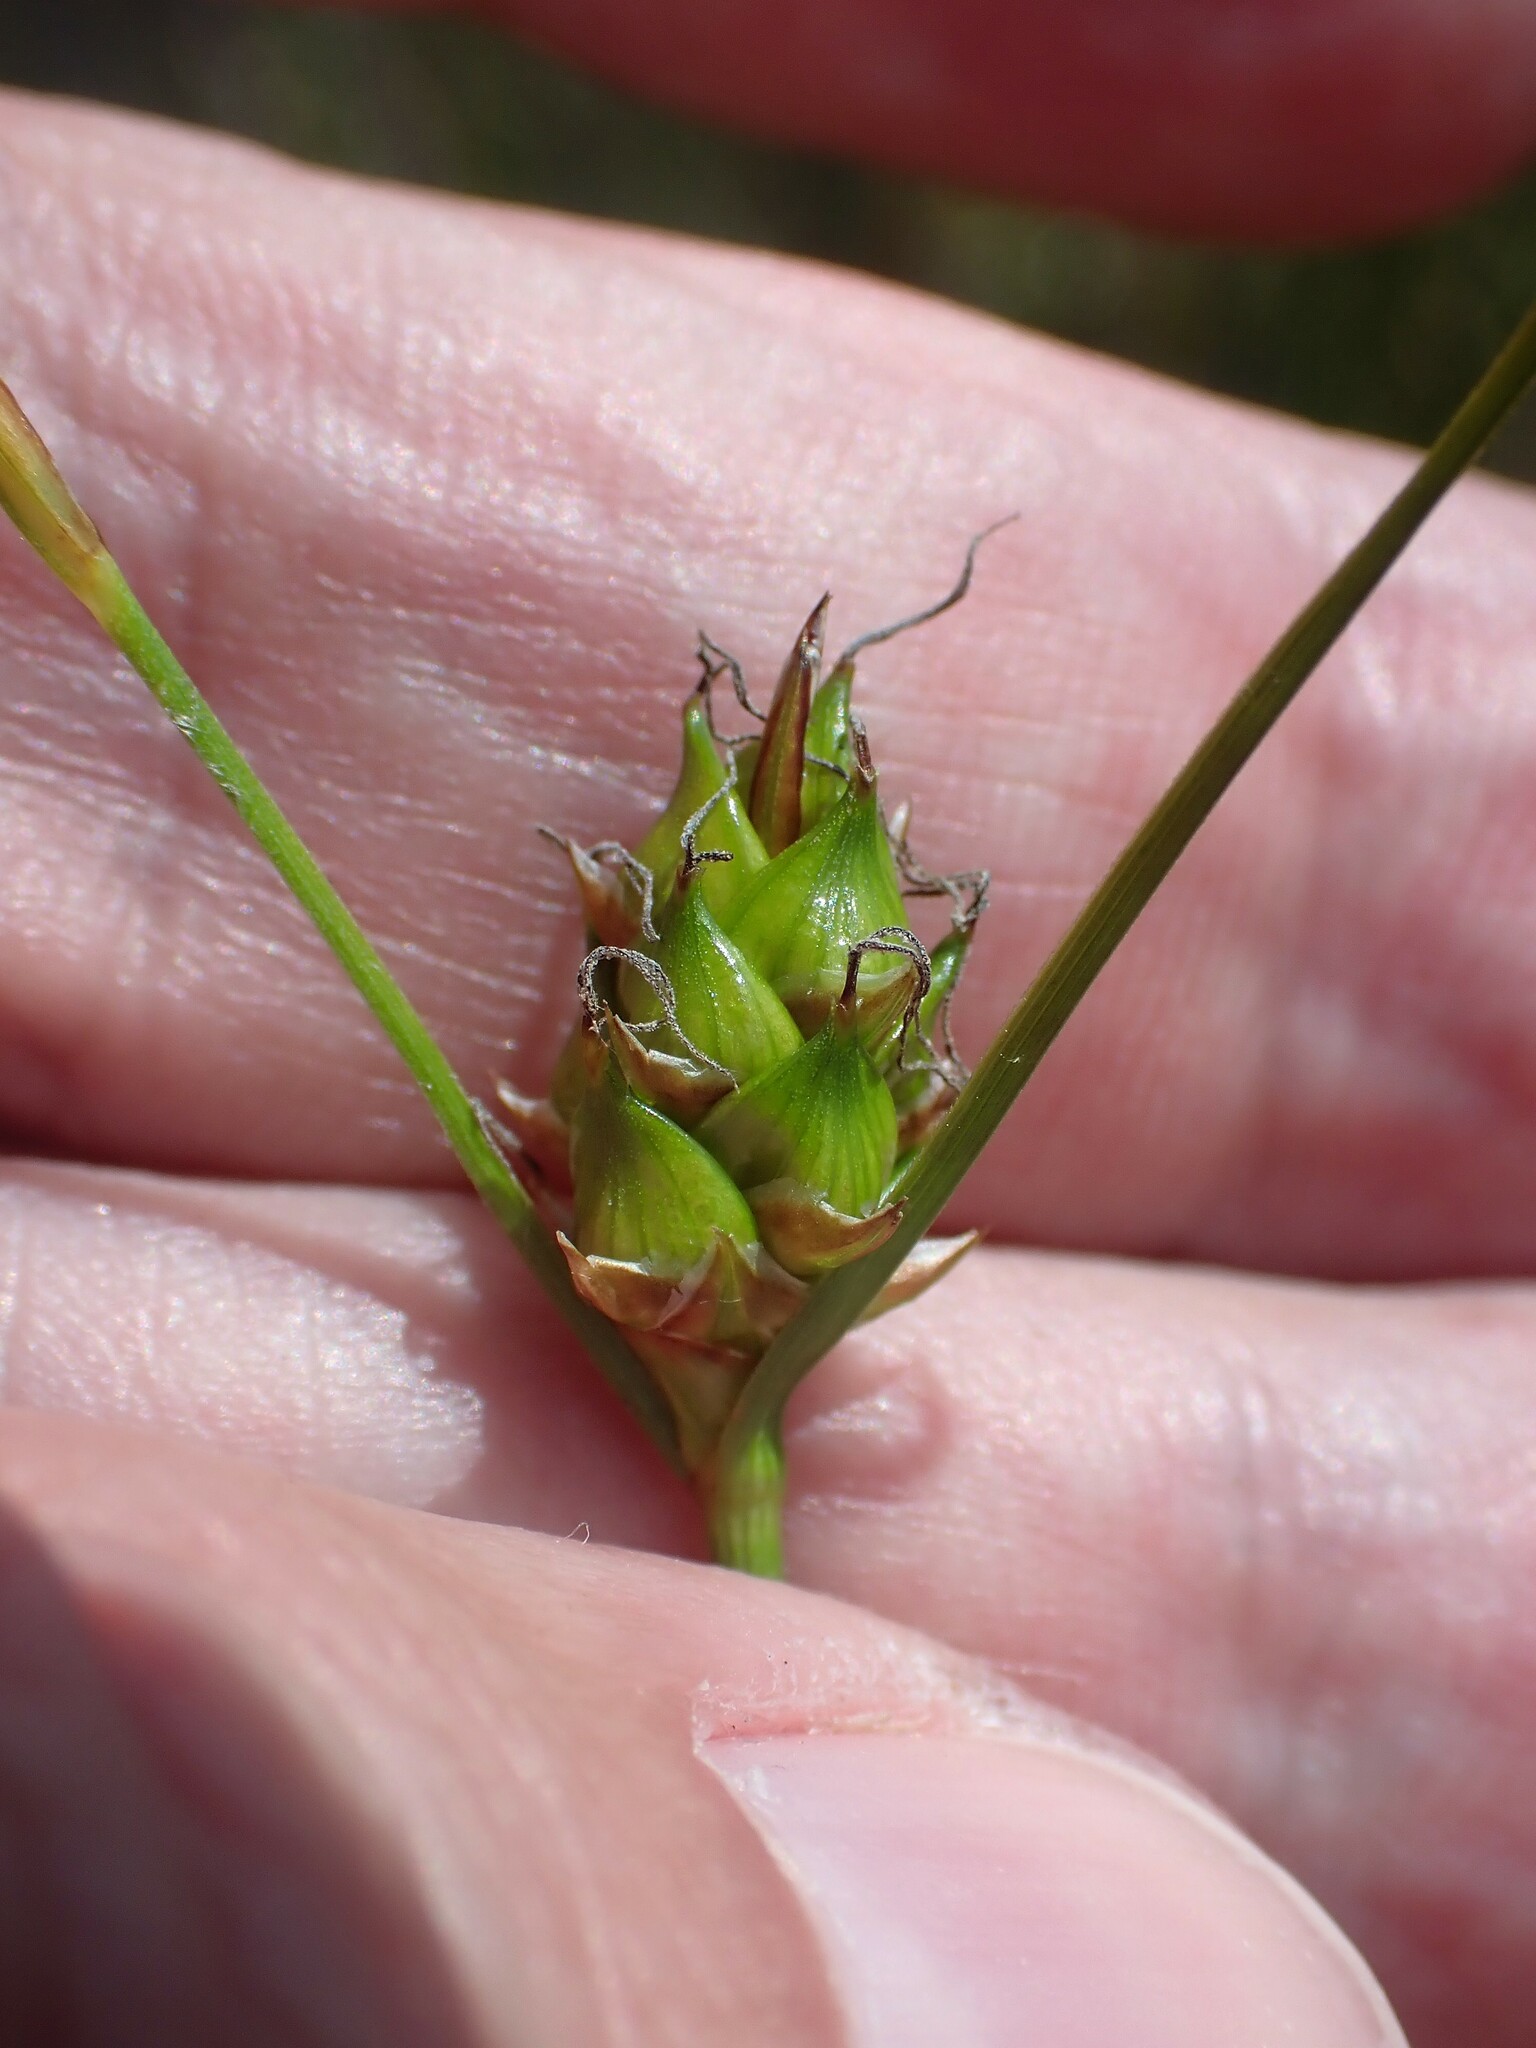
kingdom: Plantae
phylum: Tracheophyta
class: Liliopsida
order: Poales
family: Cyperaceae
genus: Carex
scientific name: Carex oligosperma
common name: Few-seed sedge
